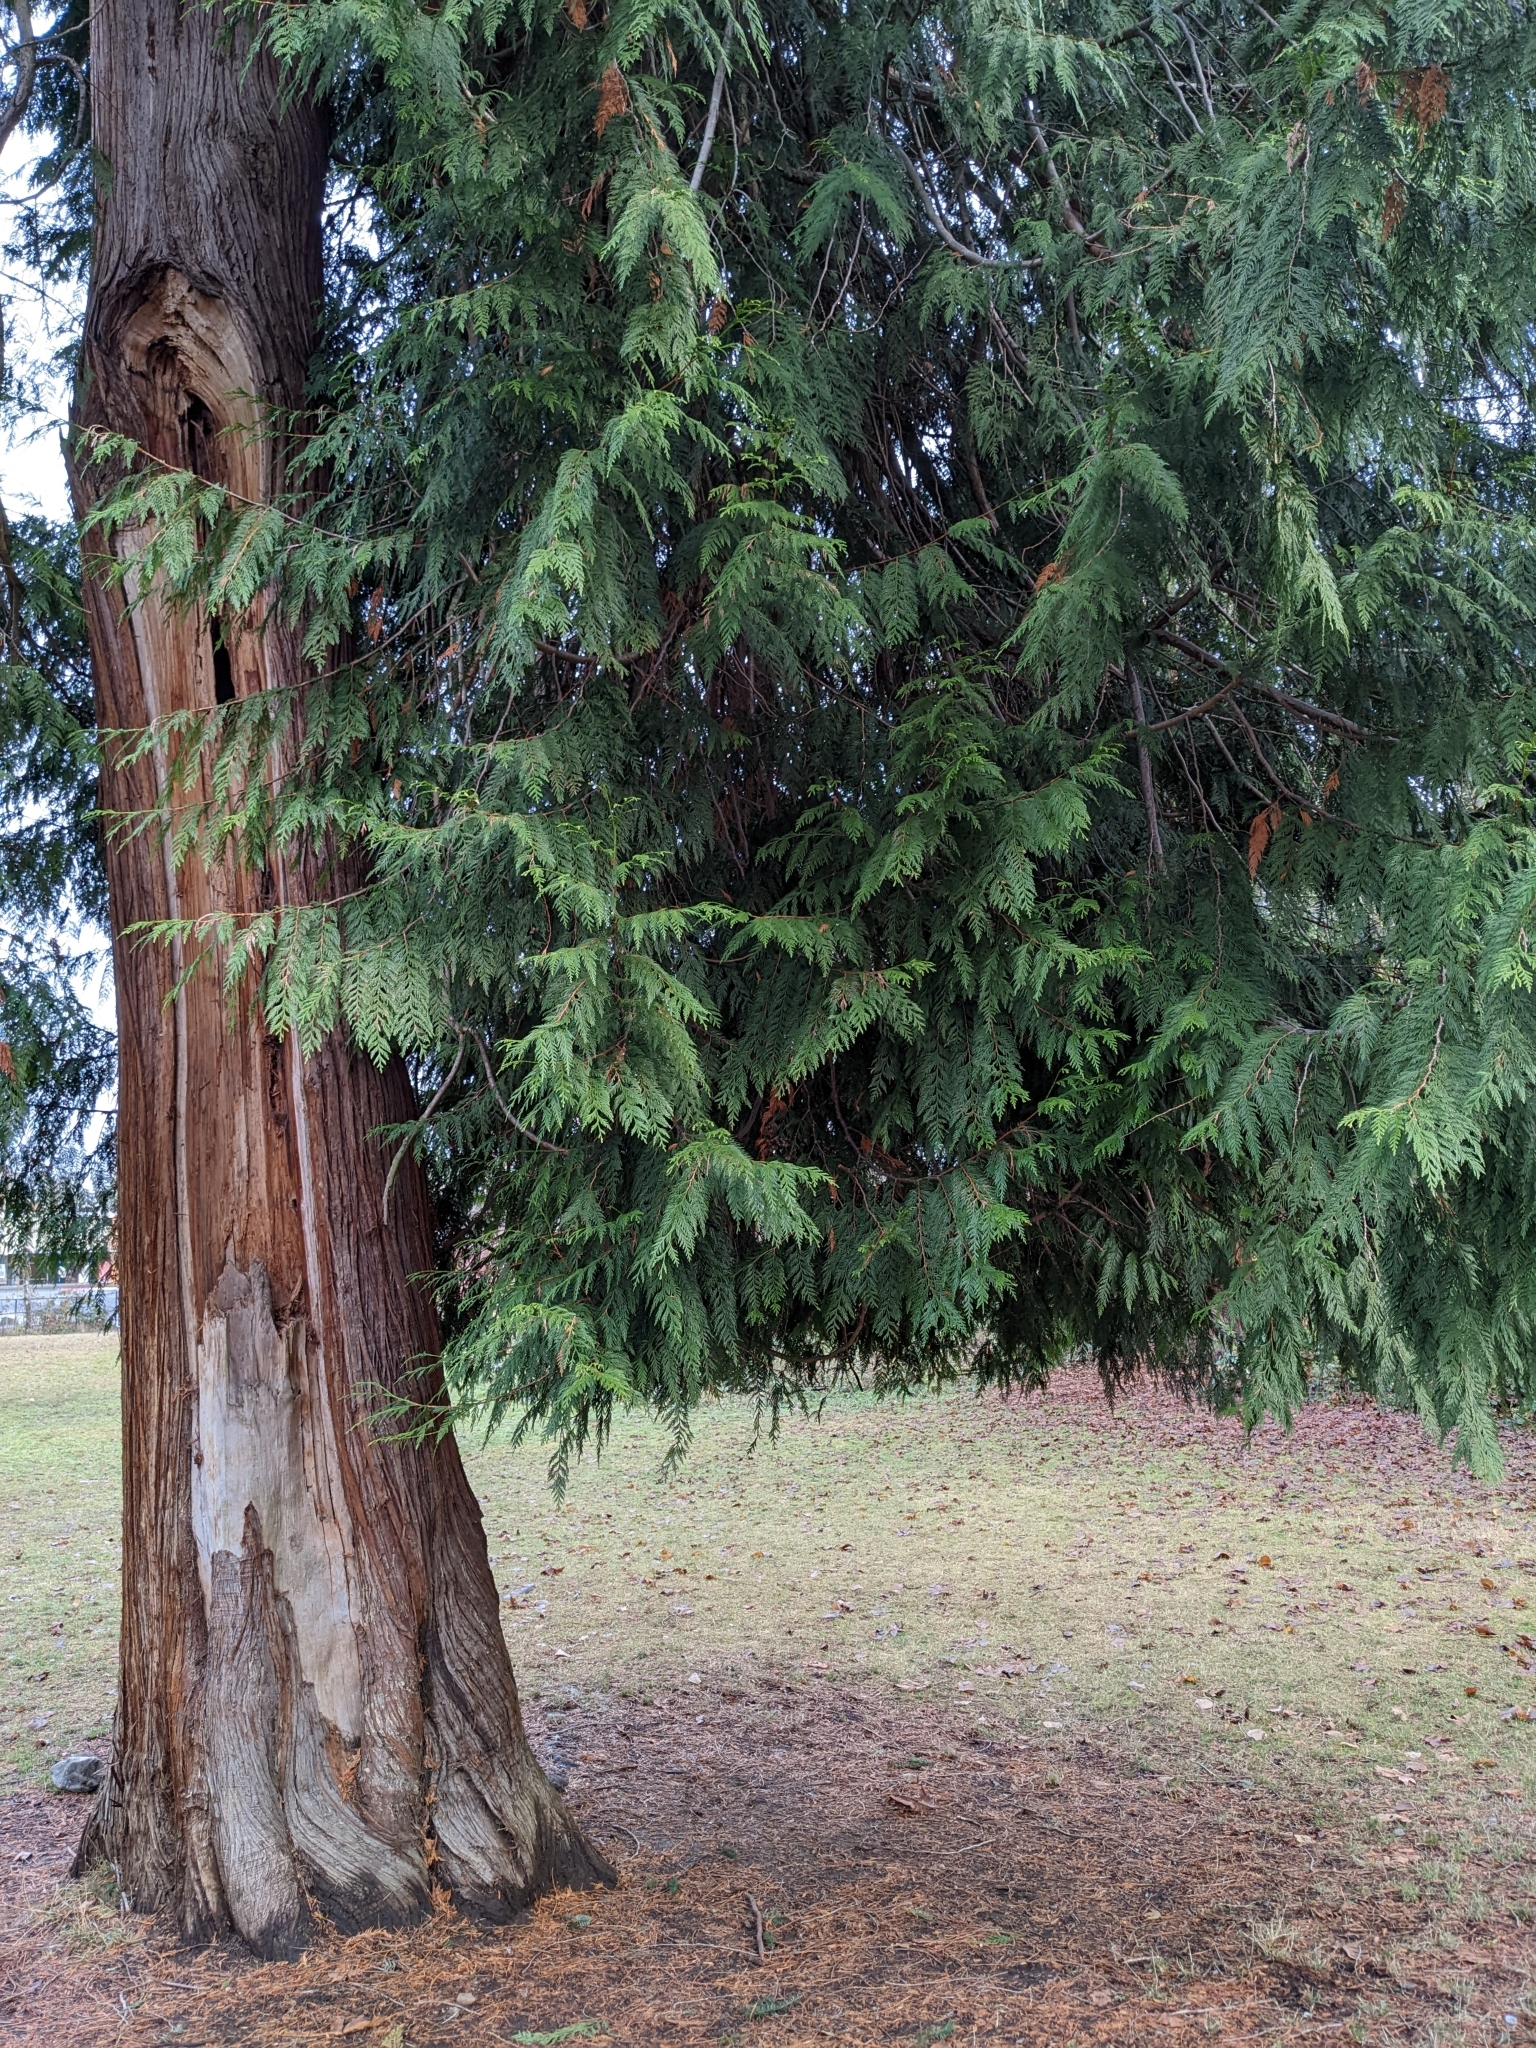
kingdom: Plantae
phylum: Tracheophyta
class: Pinopsida
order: Pinales
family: Cupressaceae
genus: Thuja
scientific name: Thuja plicata
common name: Western red-cedar
